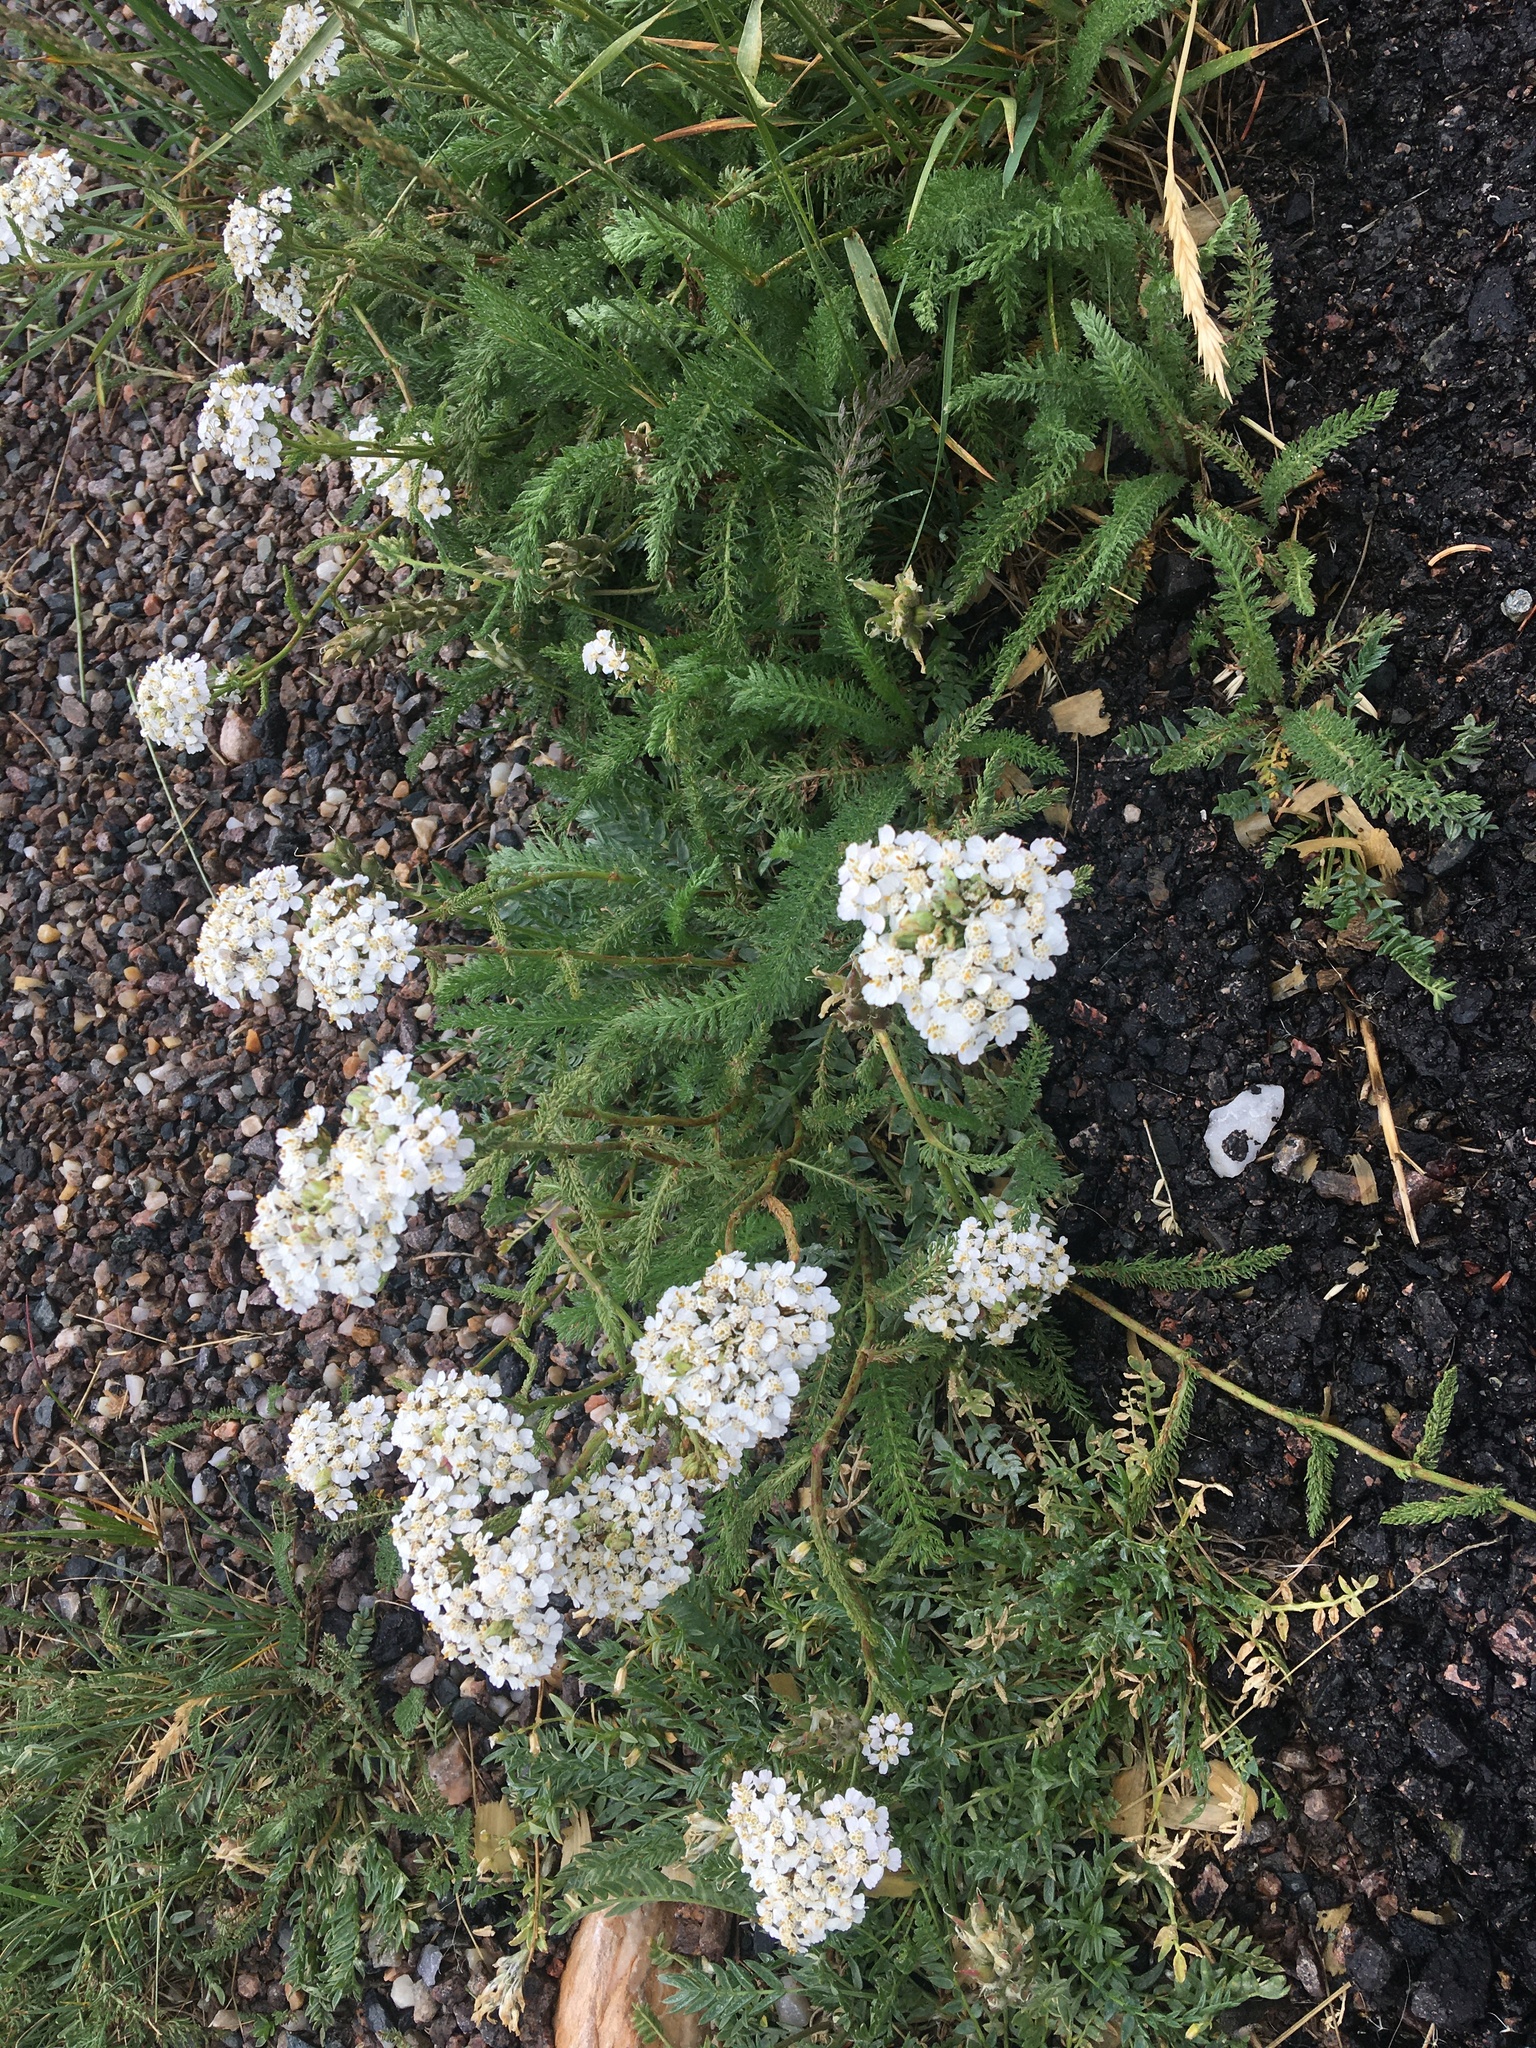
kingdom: Plantae
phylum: Tracheophyta
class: Magnoliopsida
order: Asterales
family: Asteraceae
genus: Achillea
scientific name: Achillea millefolium
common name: Yarrow
